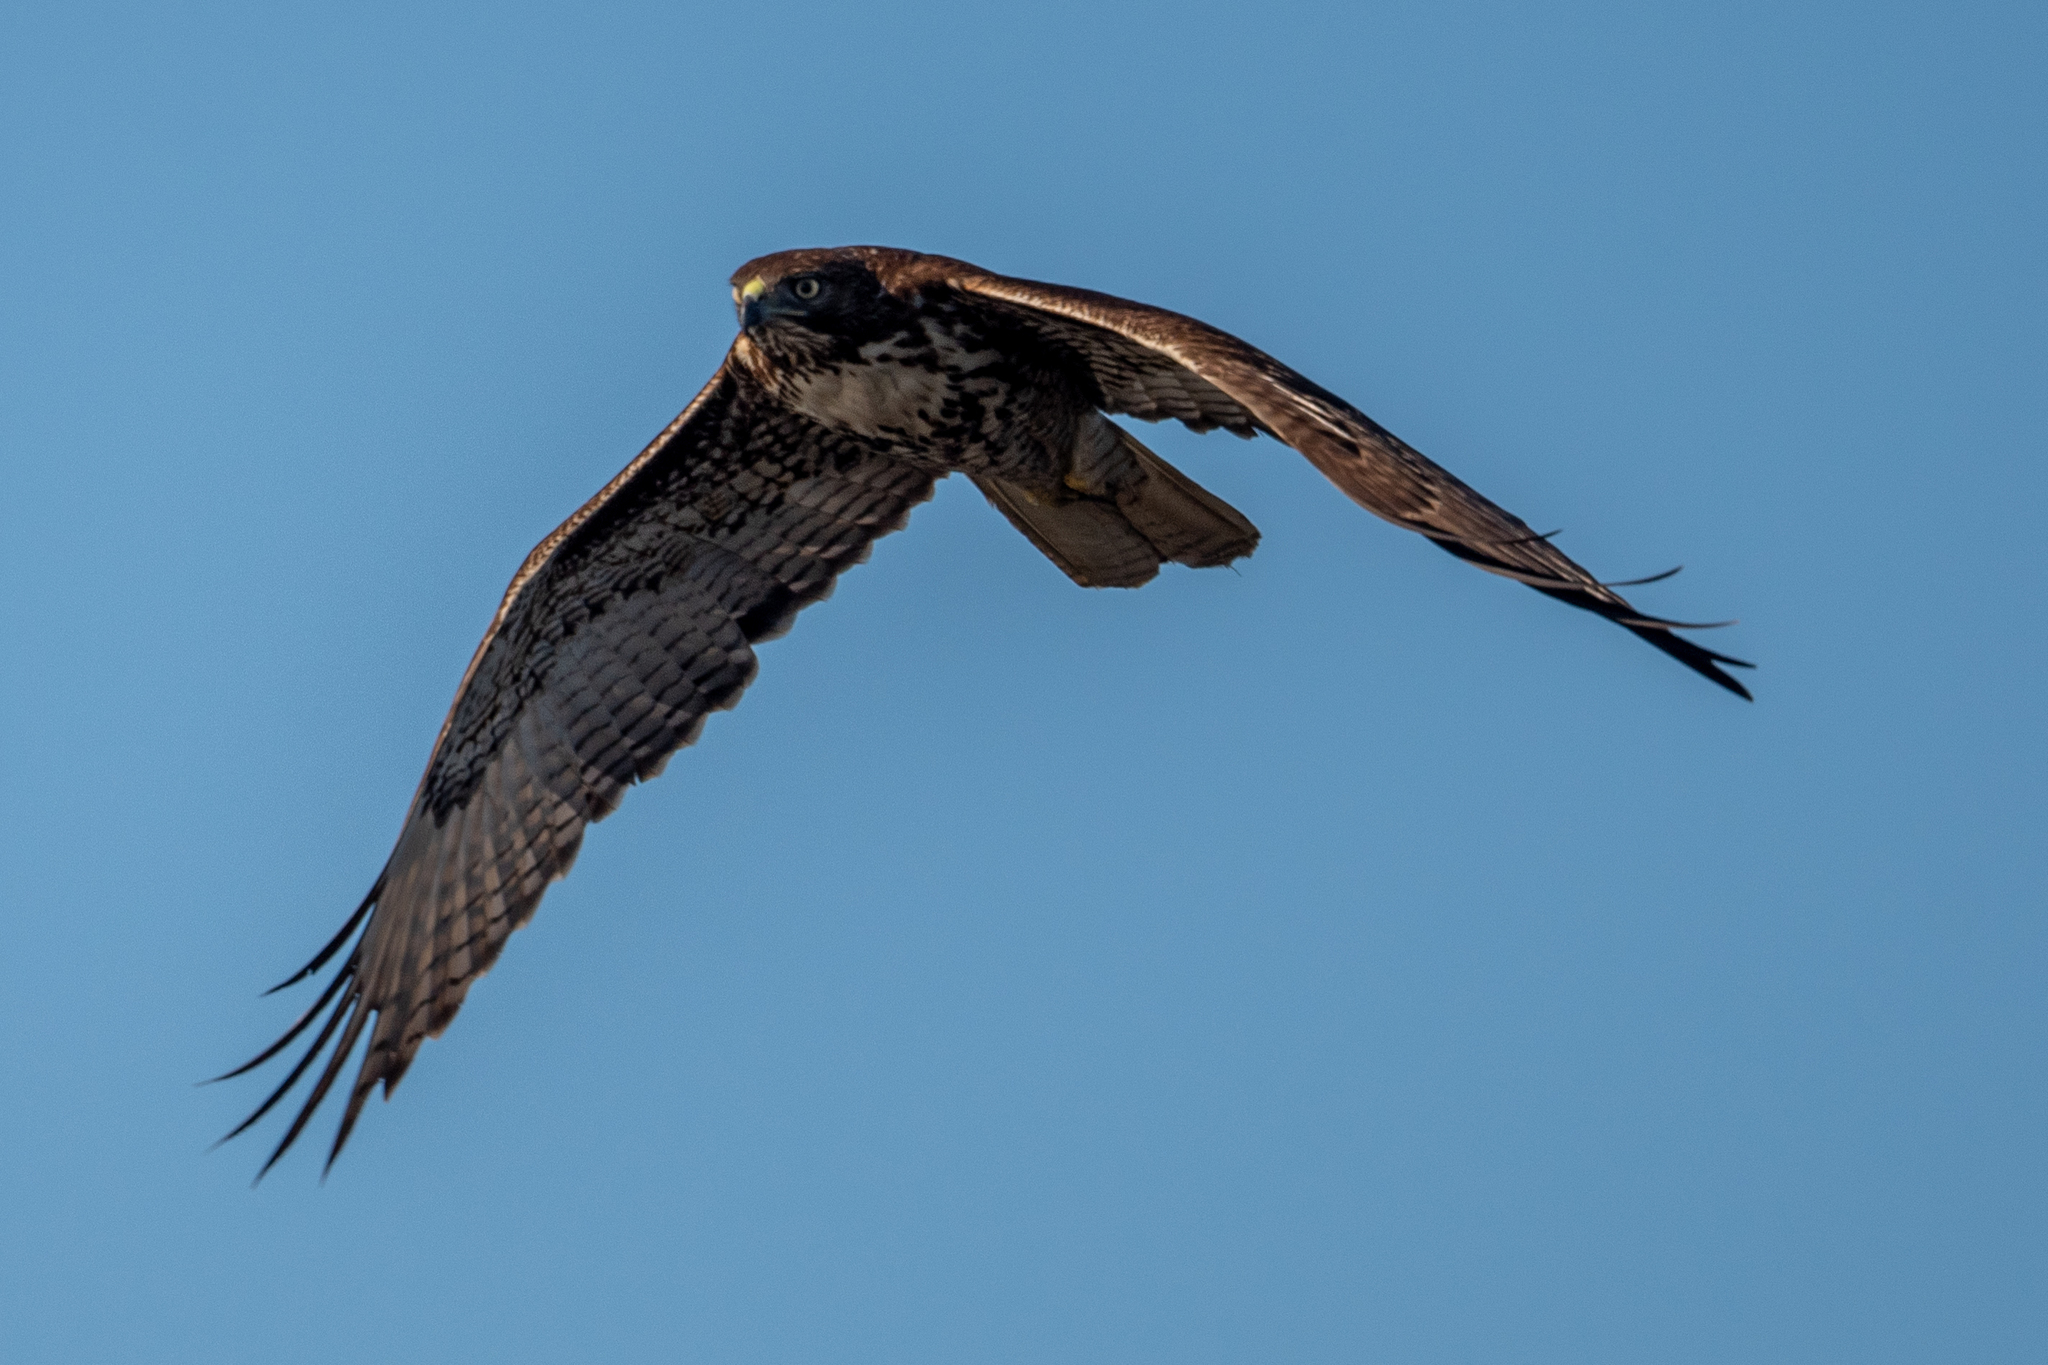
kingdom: Animalia
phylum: Chordata
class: Aves
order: Accipitriformes
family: Accipitridae
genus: Buteo
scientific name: Buteo jamaicensis
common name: Red-tailed hawk
